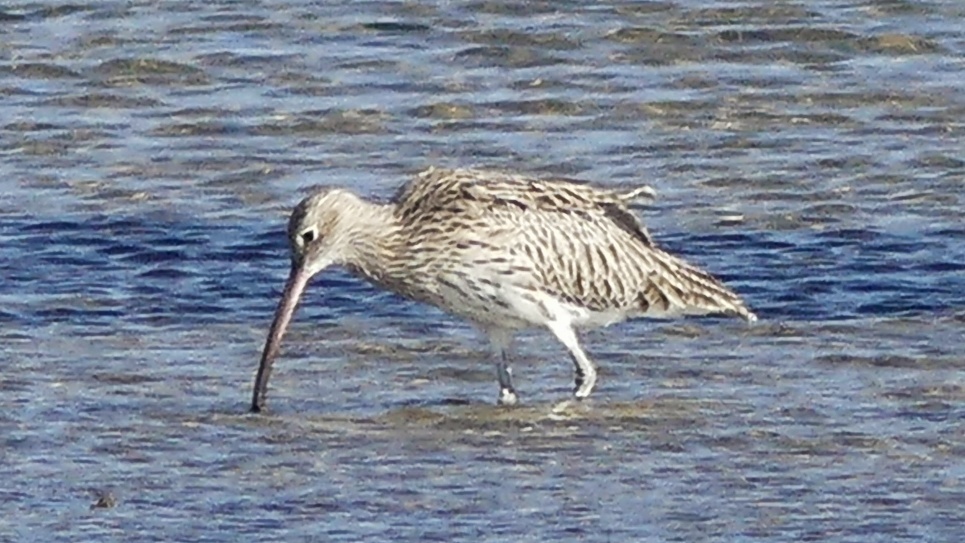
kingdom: Animalia
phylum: Chordata
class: Aves
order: Charadriiformes
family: Scolopacidae
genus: Numenius
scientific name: Numenius arquata
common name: Eurasian curlew
